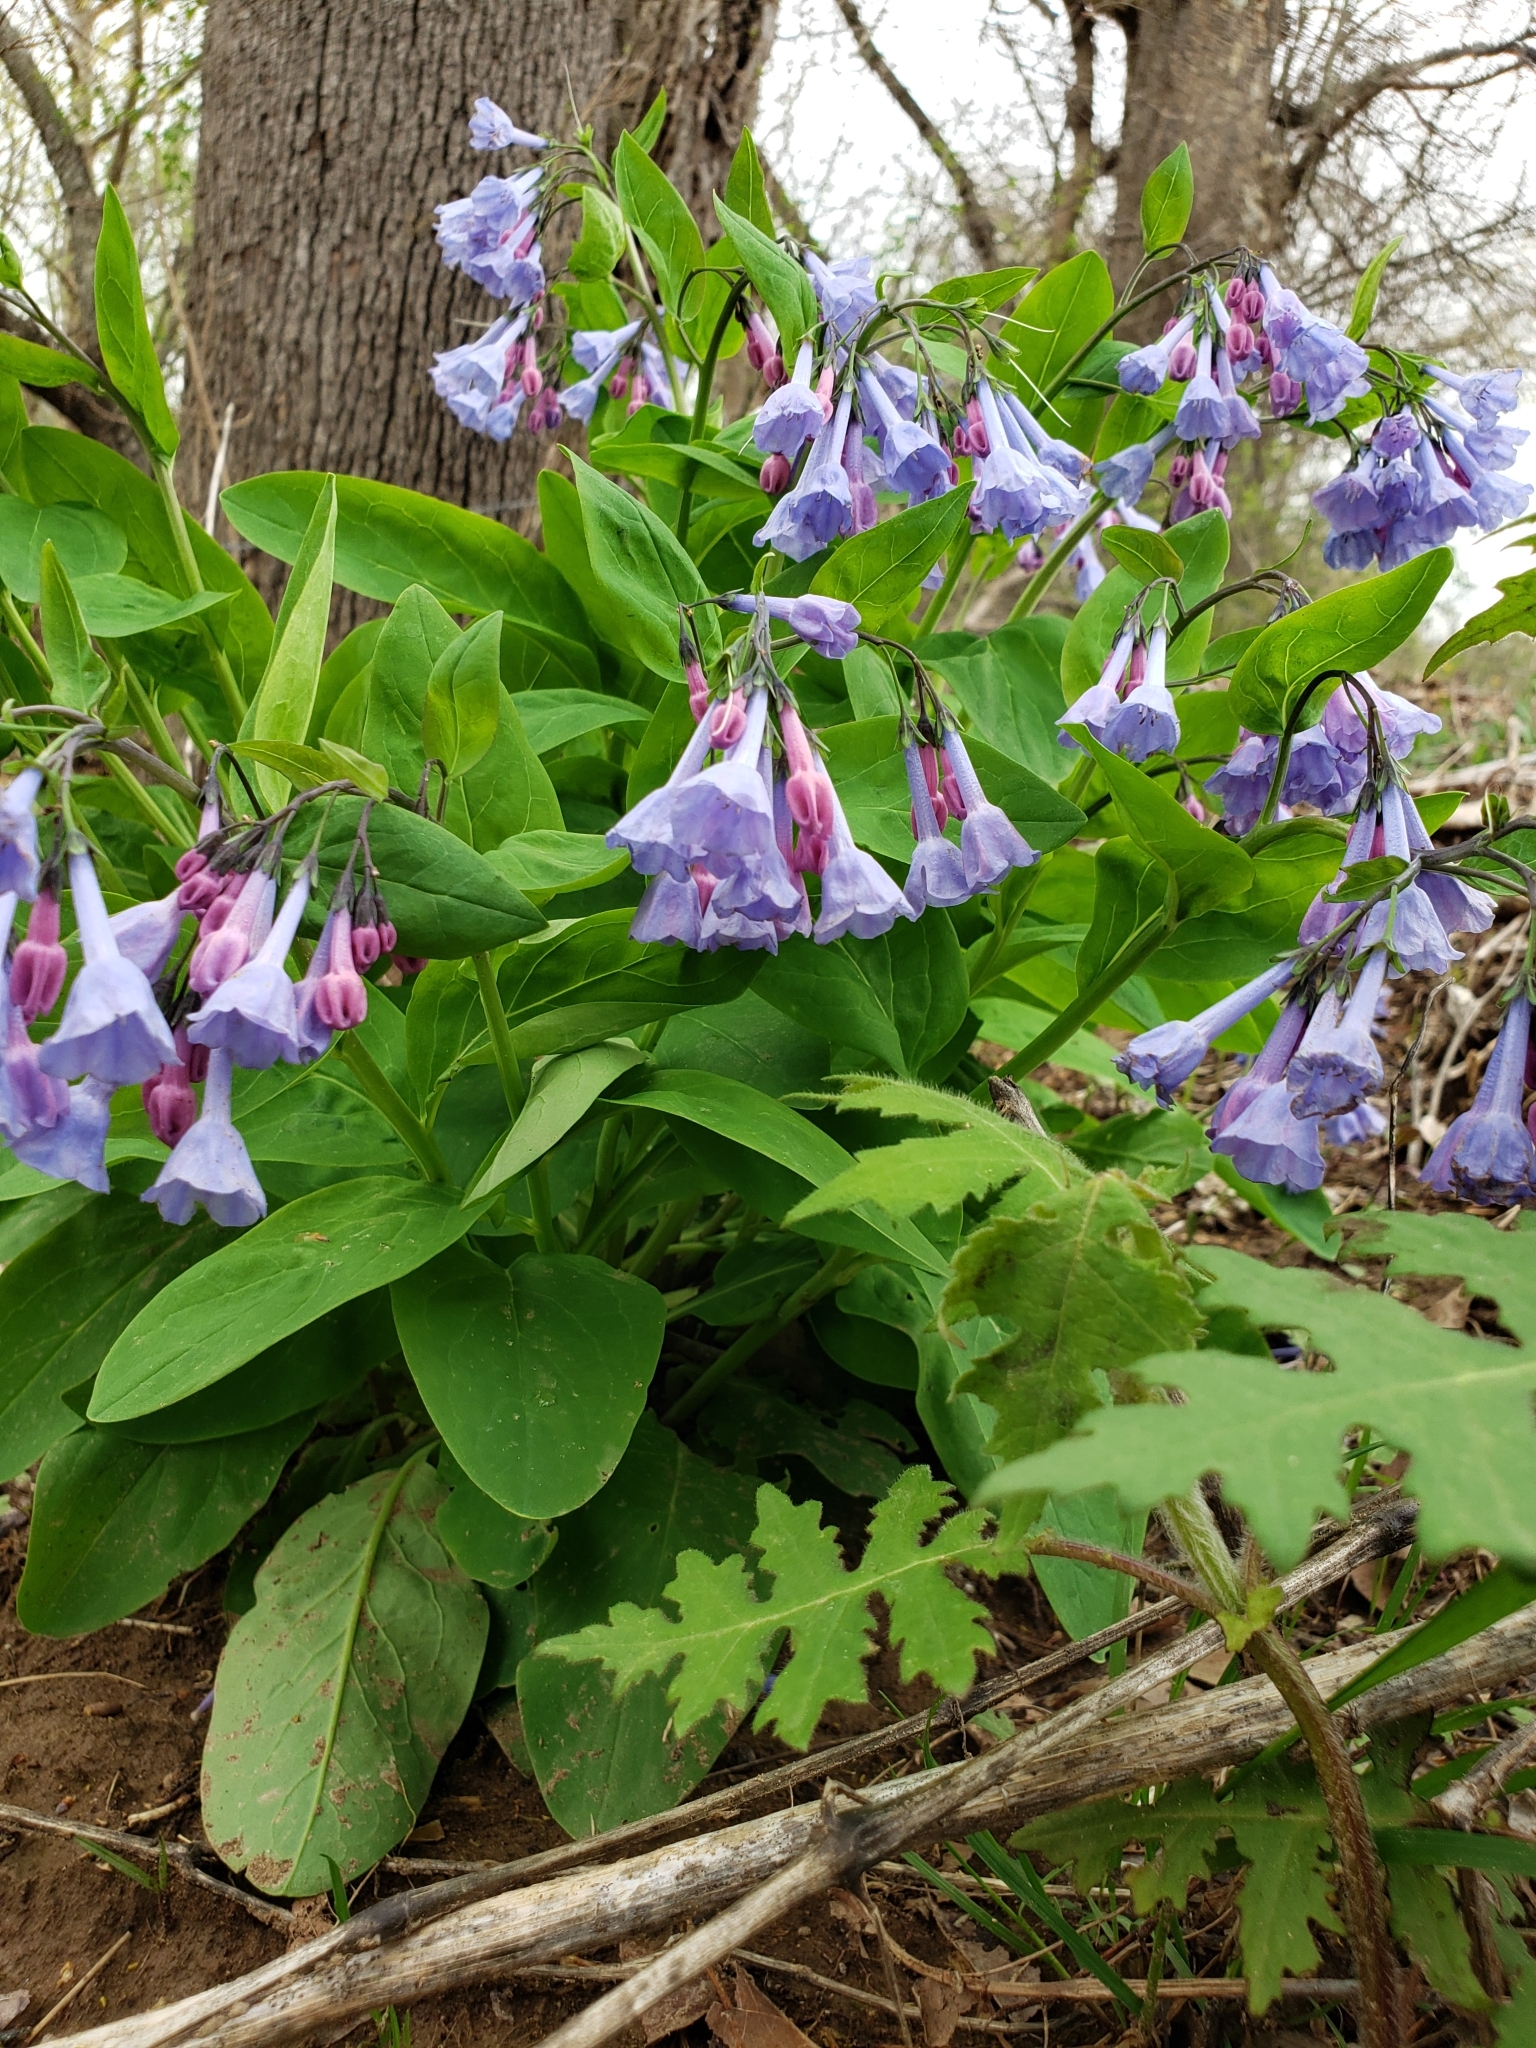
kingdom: Plantae
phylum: Tracheophyta
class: Magnoliopsida
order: Boraginales
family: Boraginaceae
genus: Mertensia
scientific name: Mertensia virginica
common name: Virginia bluebells
